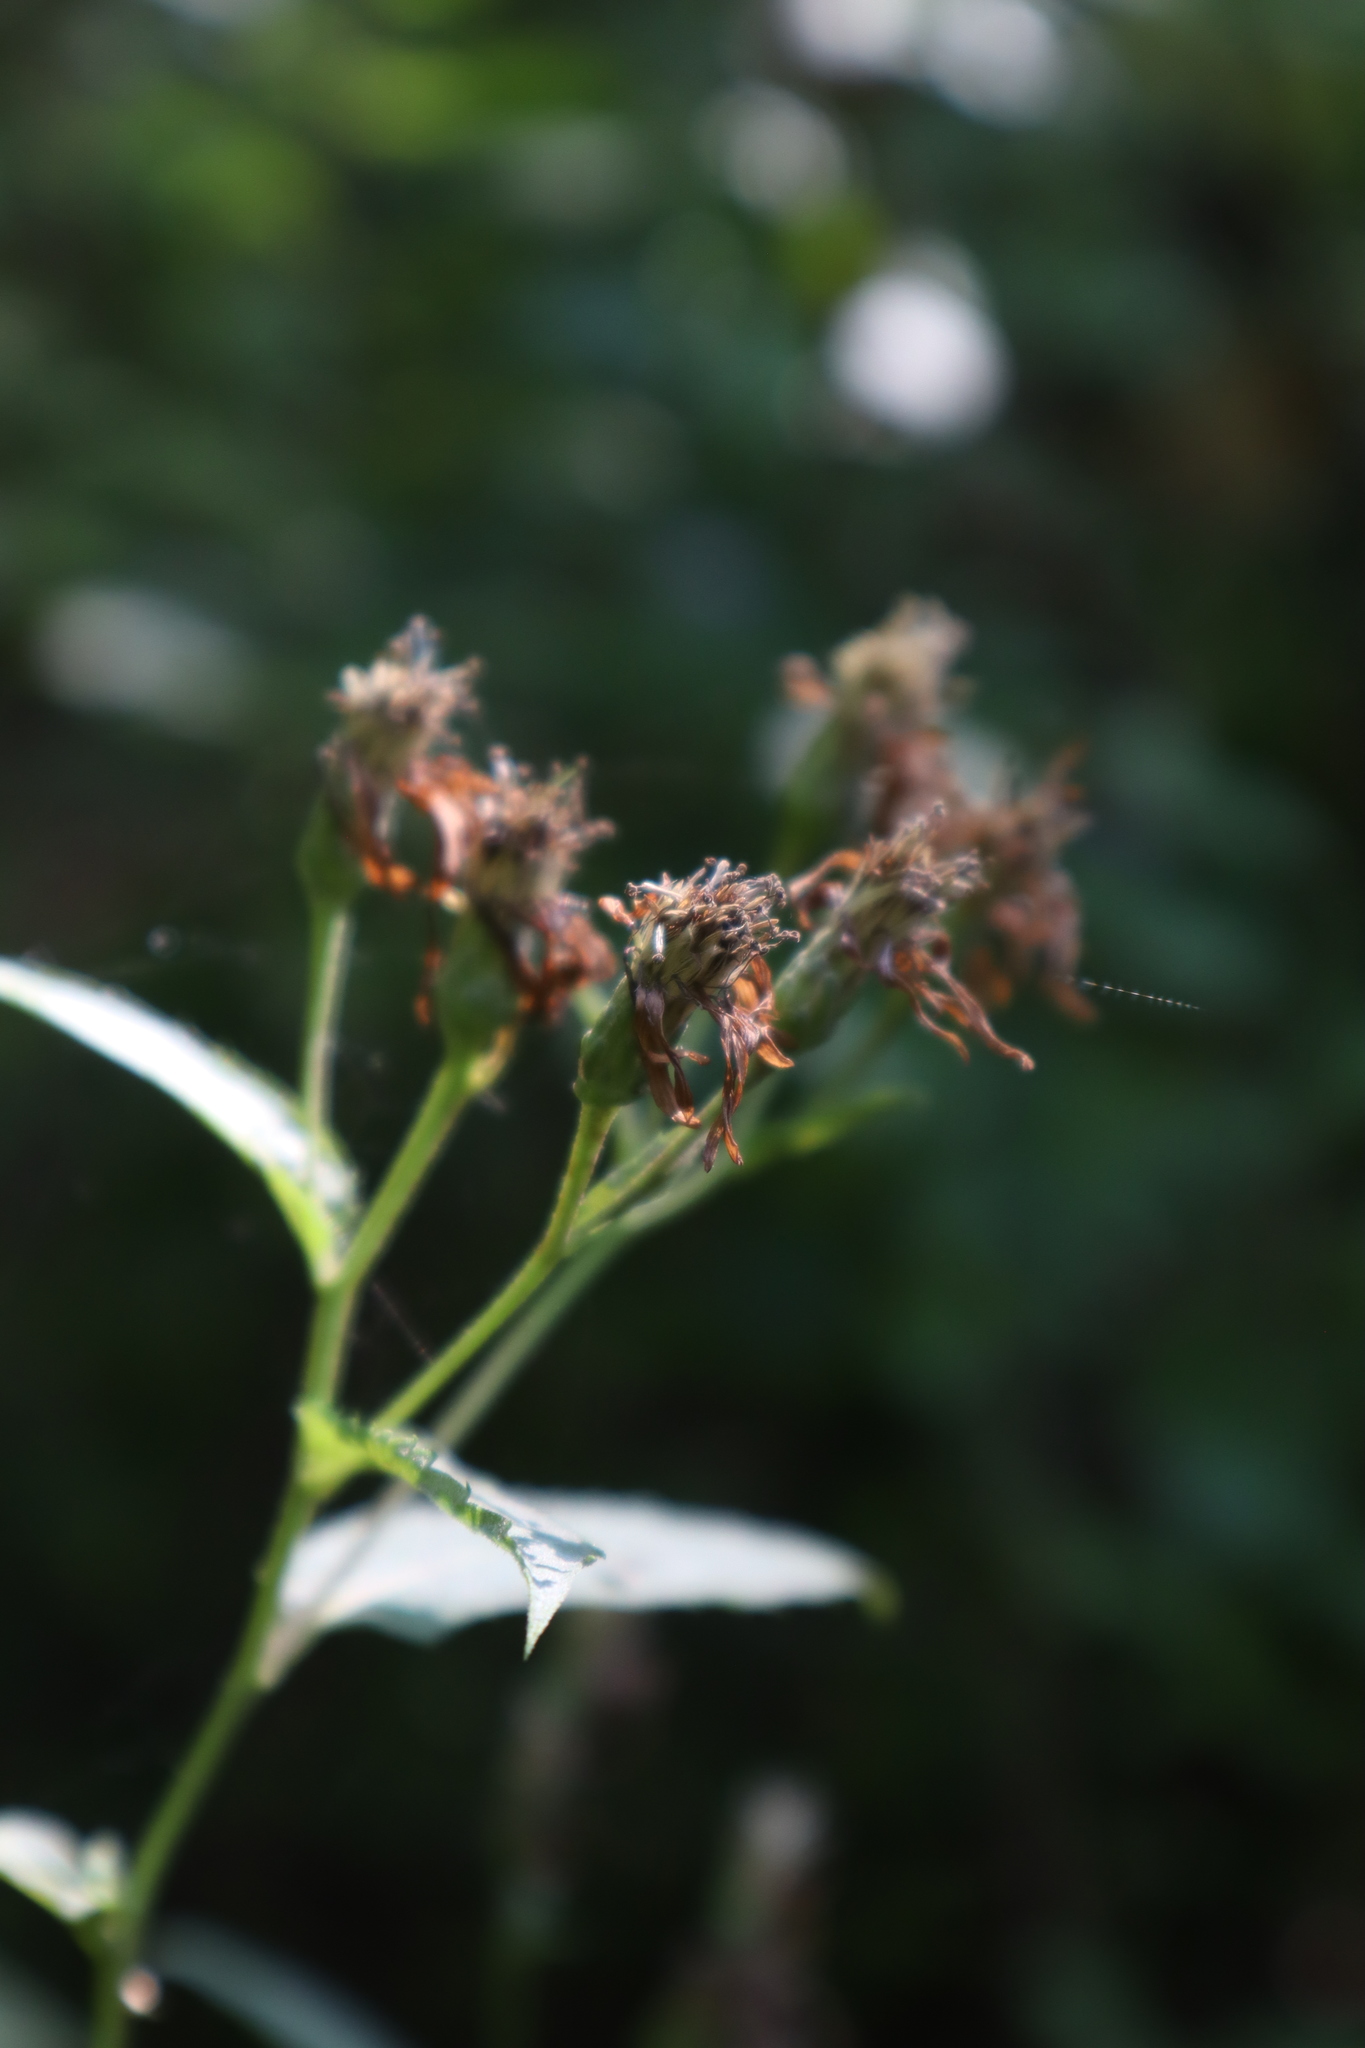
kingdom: Plantae
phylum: Tracheophyta
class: Magnoliopsida
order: Asterales
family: Asteraceae
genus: Eurybia
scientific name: Eurybia furcata
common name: Forked aster
